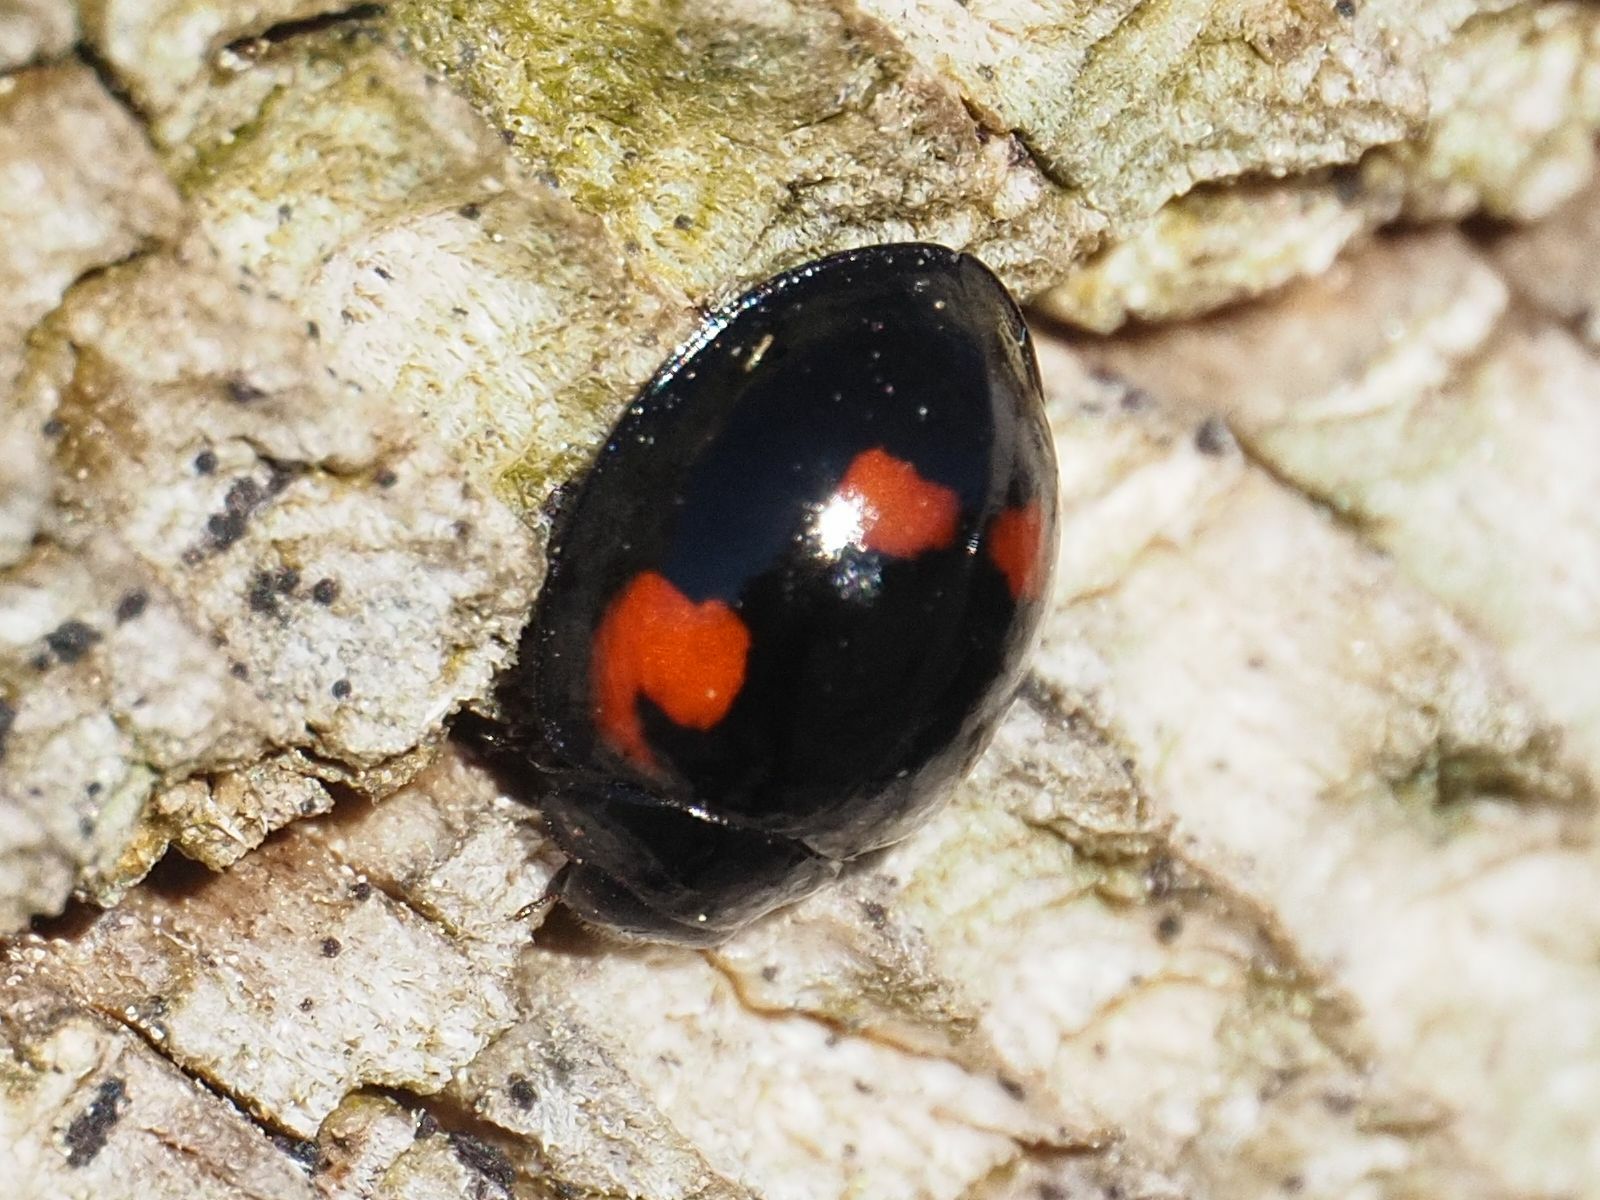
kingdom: Animalia
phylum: Arthropoda
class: Insecta
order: Coleoptera
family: Coccinellidae
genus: Brumus
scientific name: Brumus quadripustulatus
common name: Ladybird beetle
